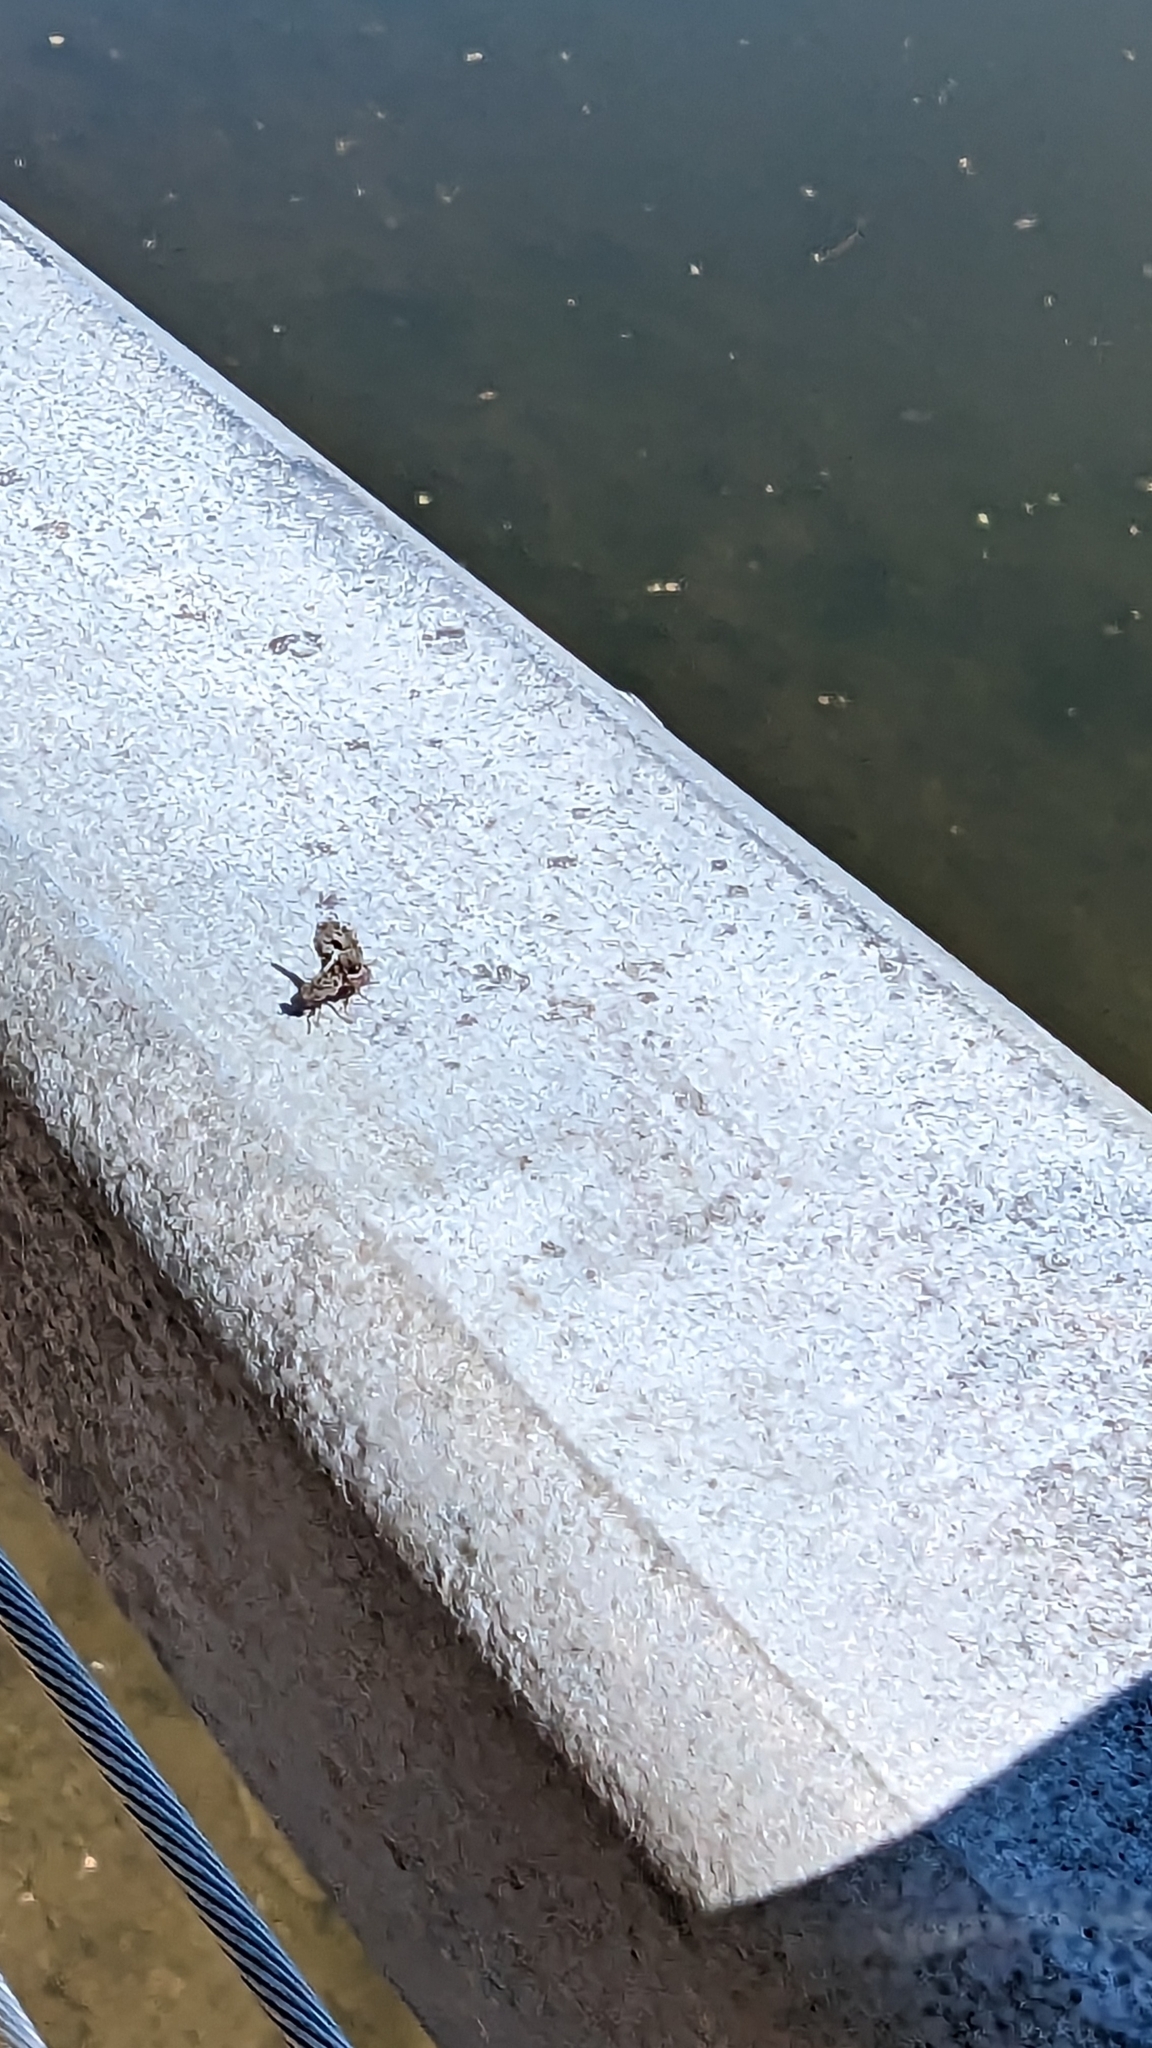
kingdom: Animalia
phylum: Arthropoda
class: Insecta
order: Diptera
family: Ulidiidae
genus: Callopistromyia
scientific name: Callopistromyia annulipes
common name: Peacock fly
